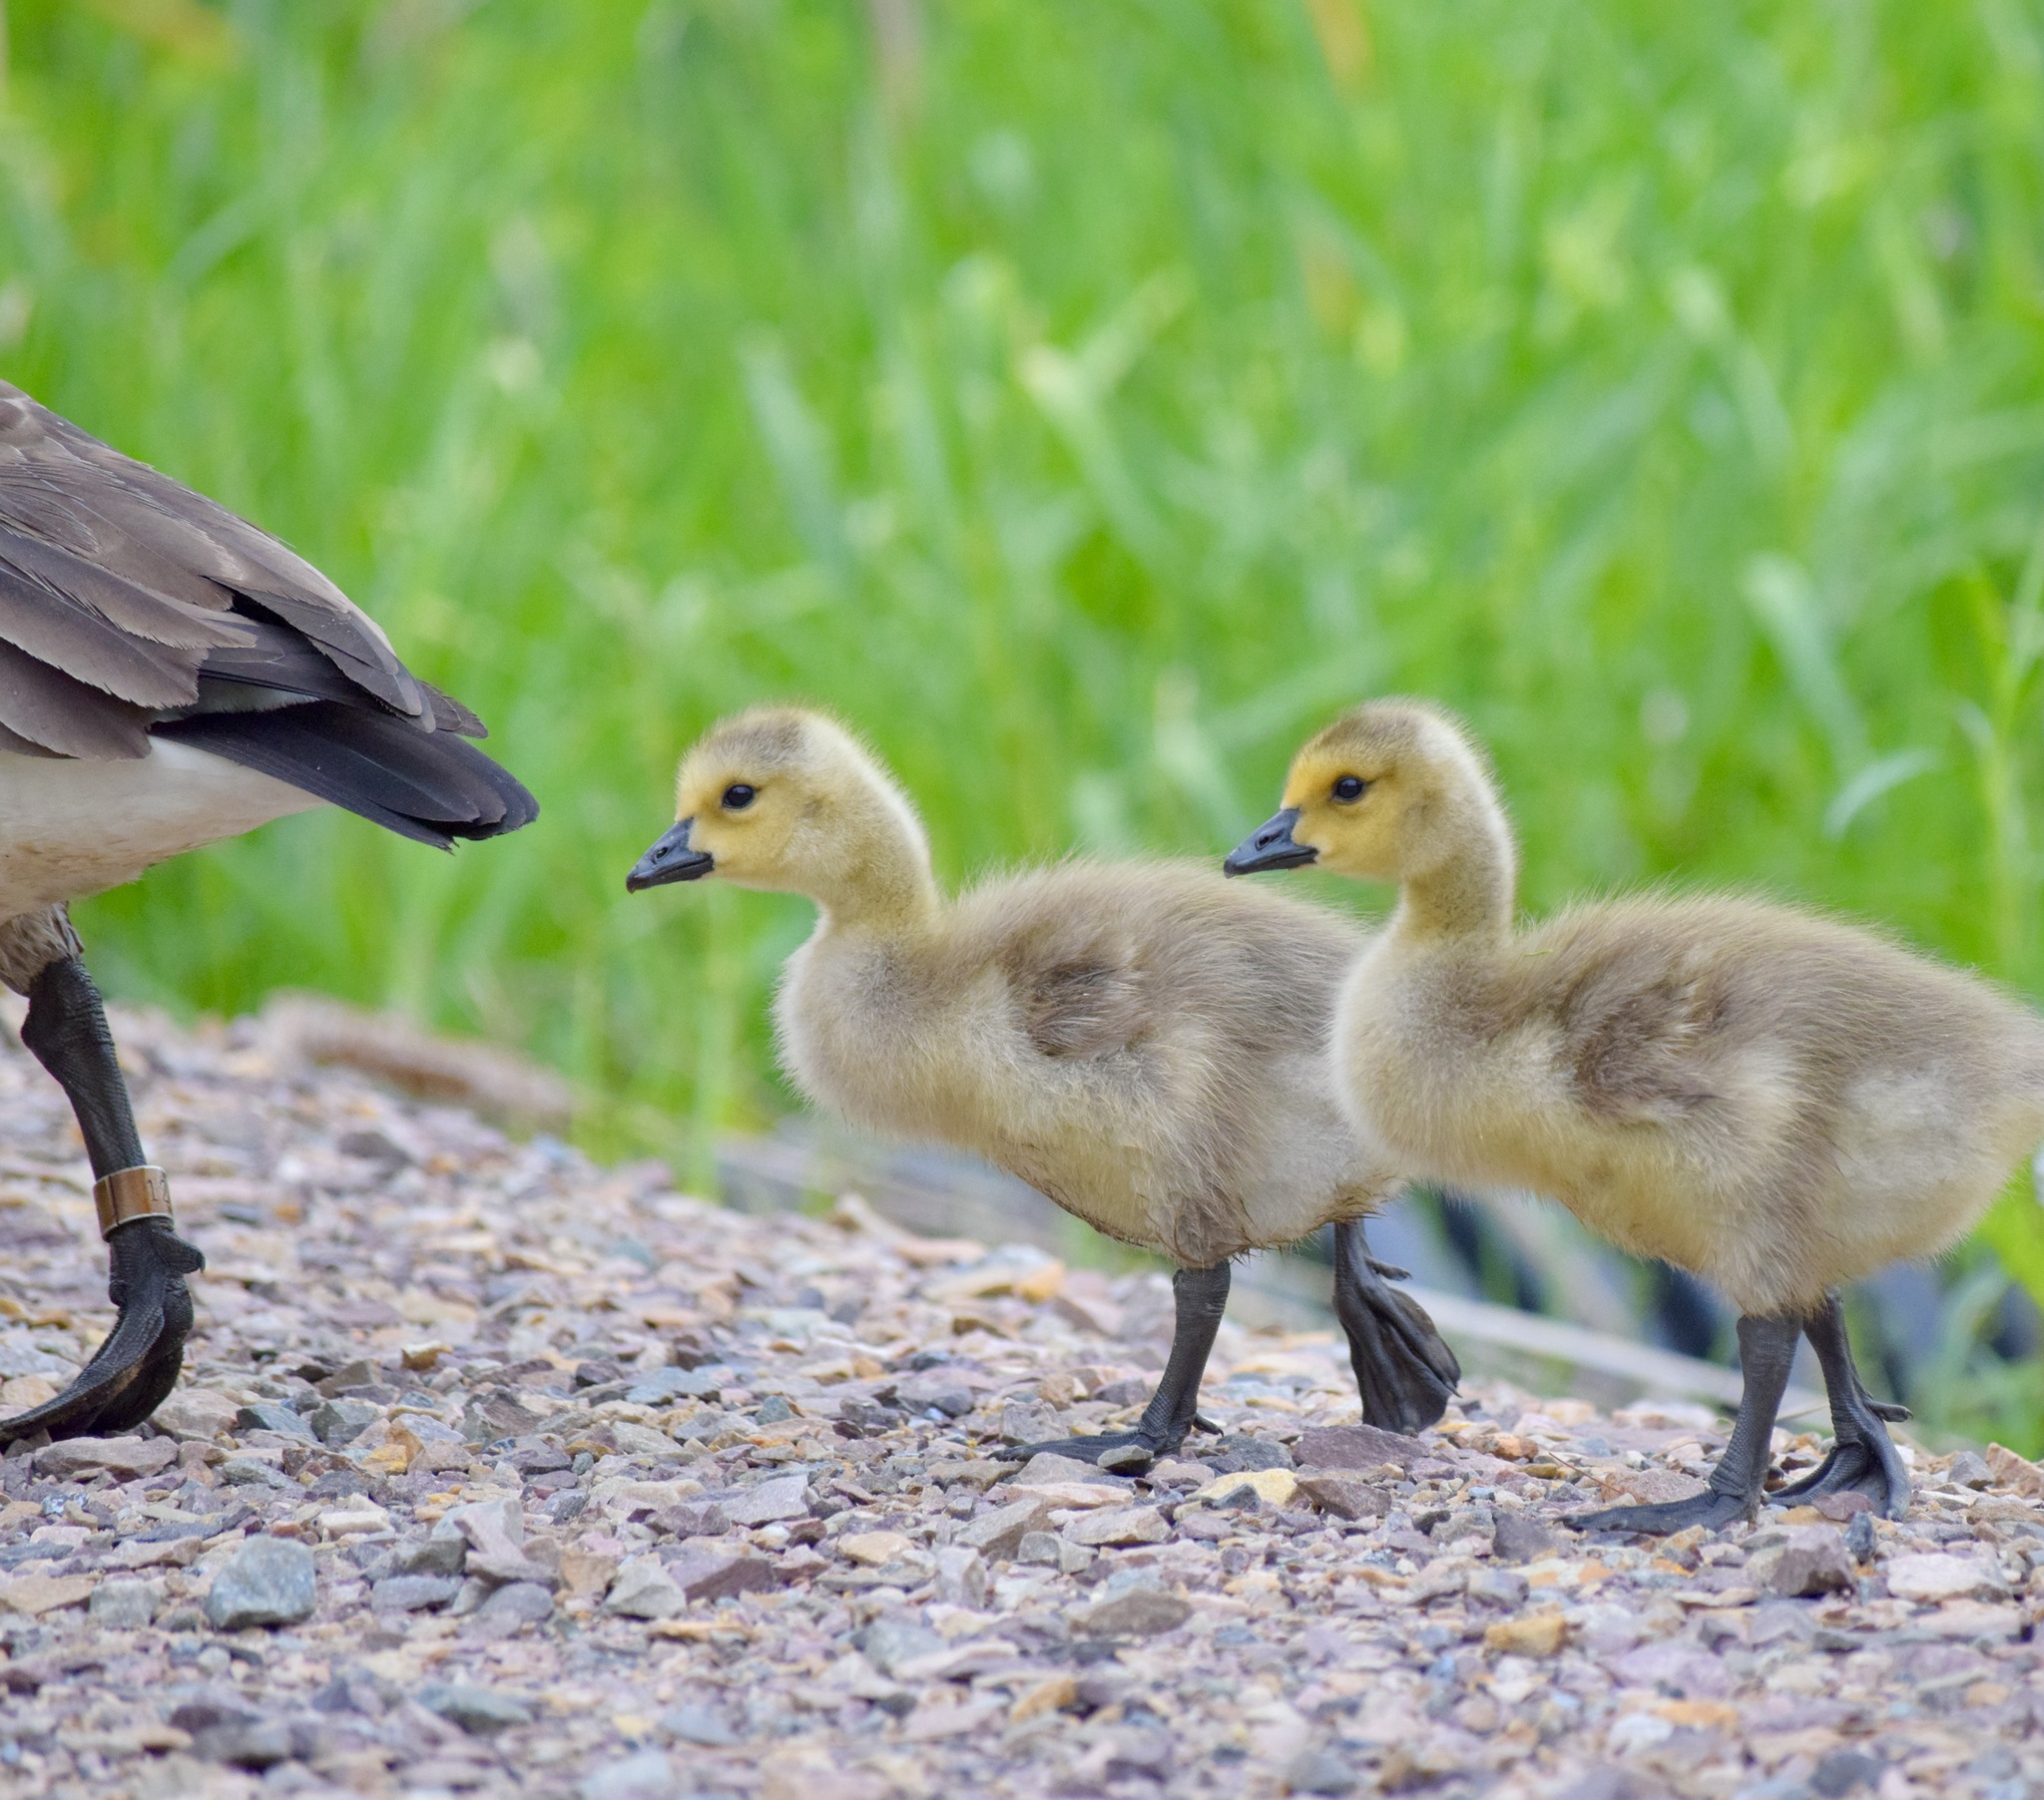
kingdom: Animalia
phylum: Chordata
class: Aves
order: Anseriformes
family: Anatidae
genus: Branta
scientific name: Branta canadensis
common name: Canada goose
